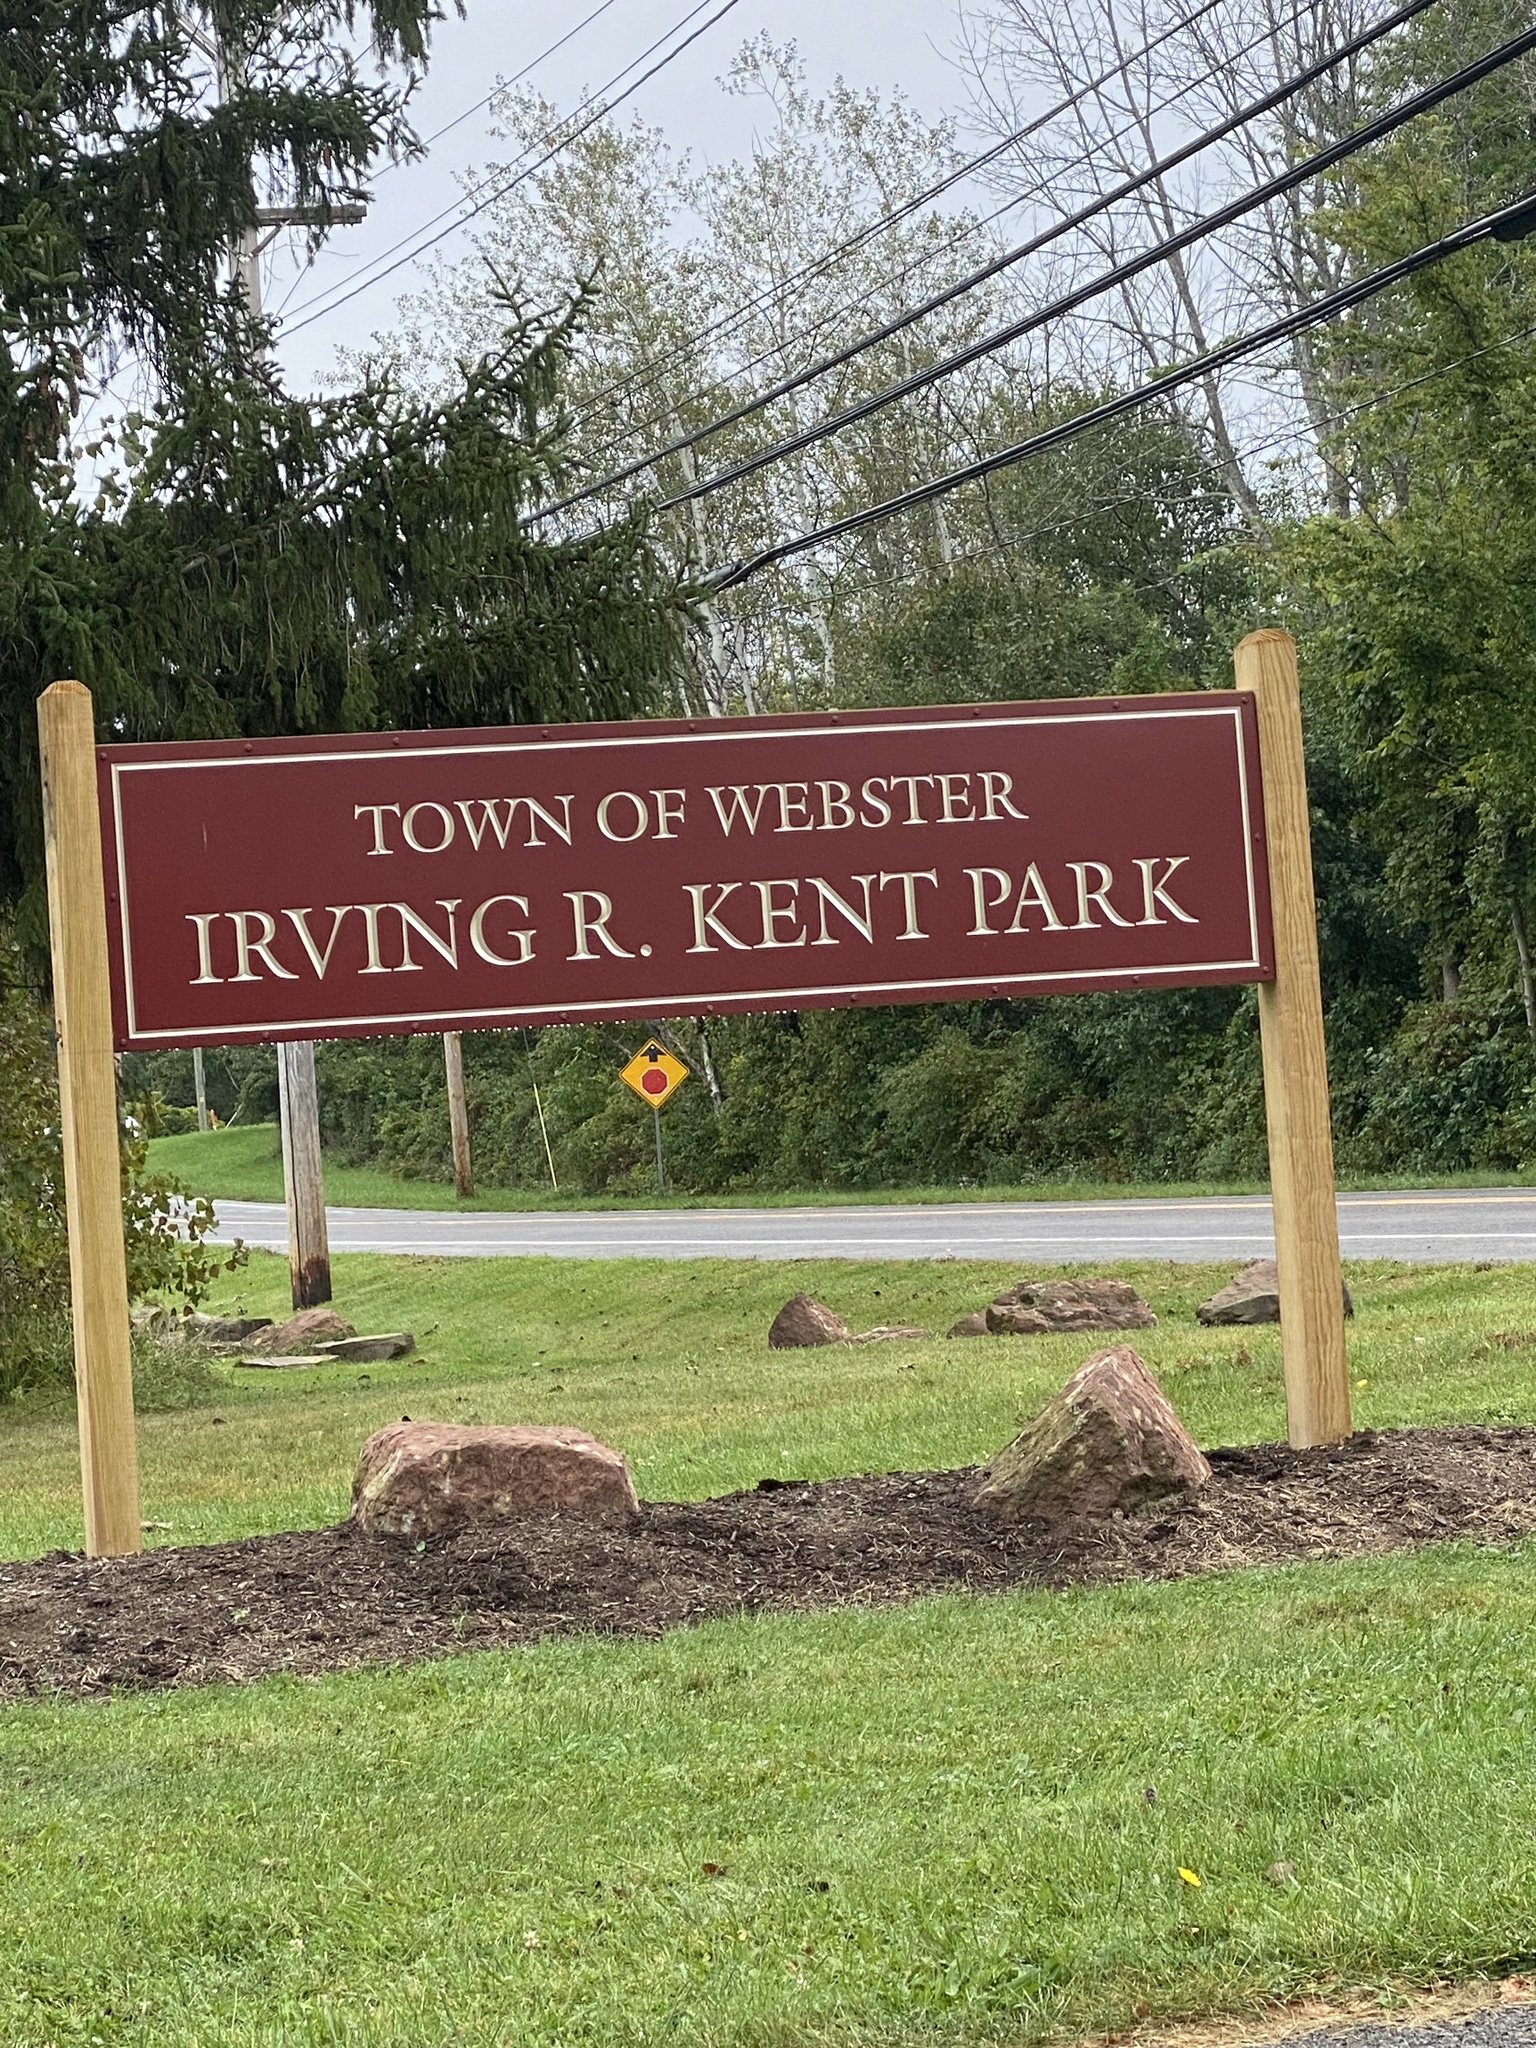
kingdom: Plantae
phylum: Tracheophyta
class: Magnoliopsida
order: Malpighiales
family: Salicaceae
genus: Populus
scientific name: Populus deltoides
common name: Eastern cottonwood
